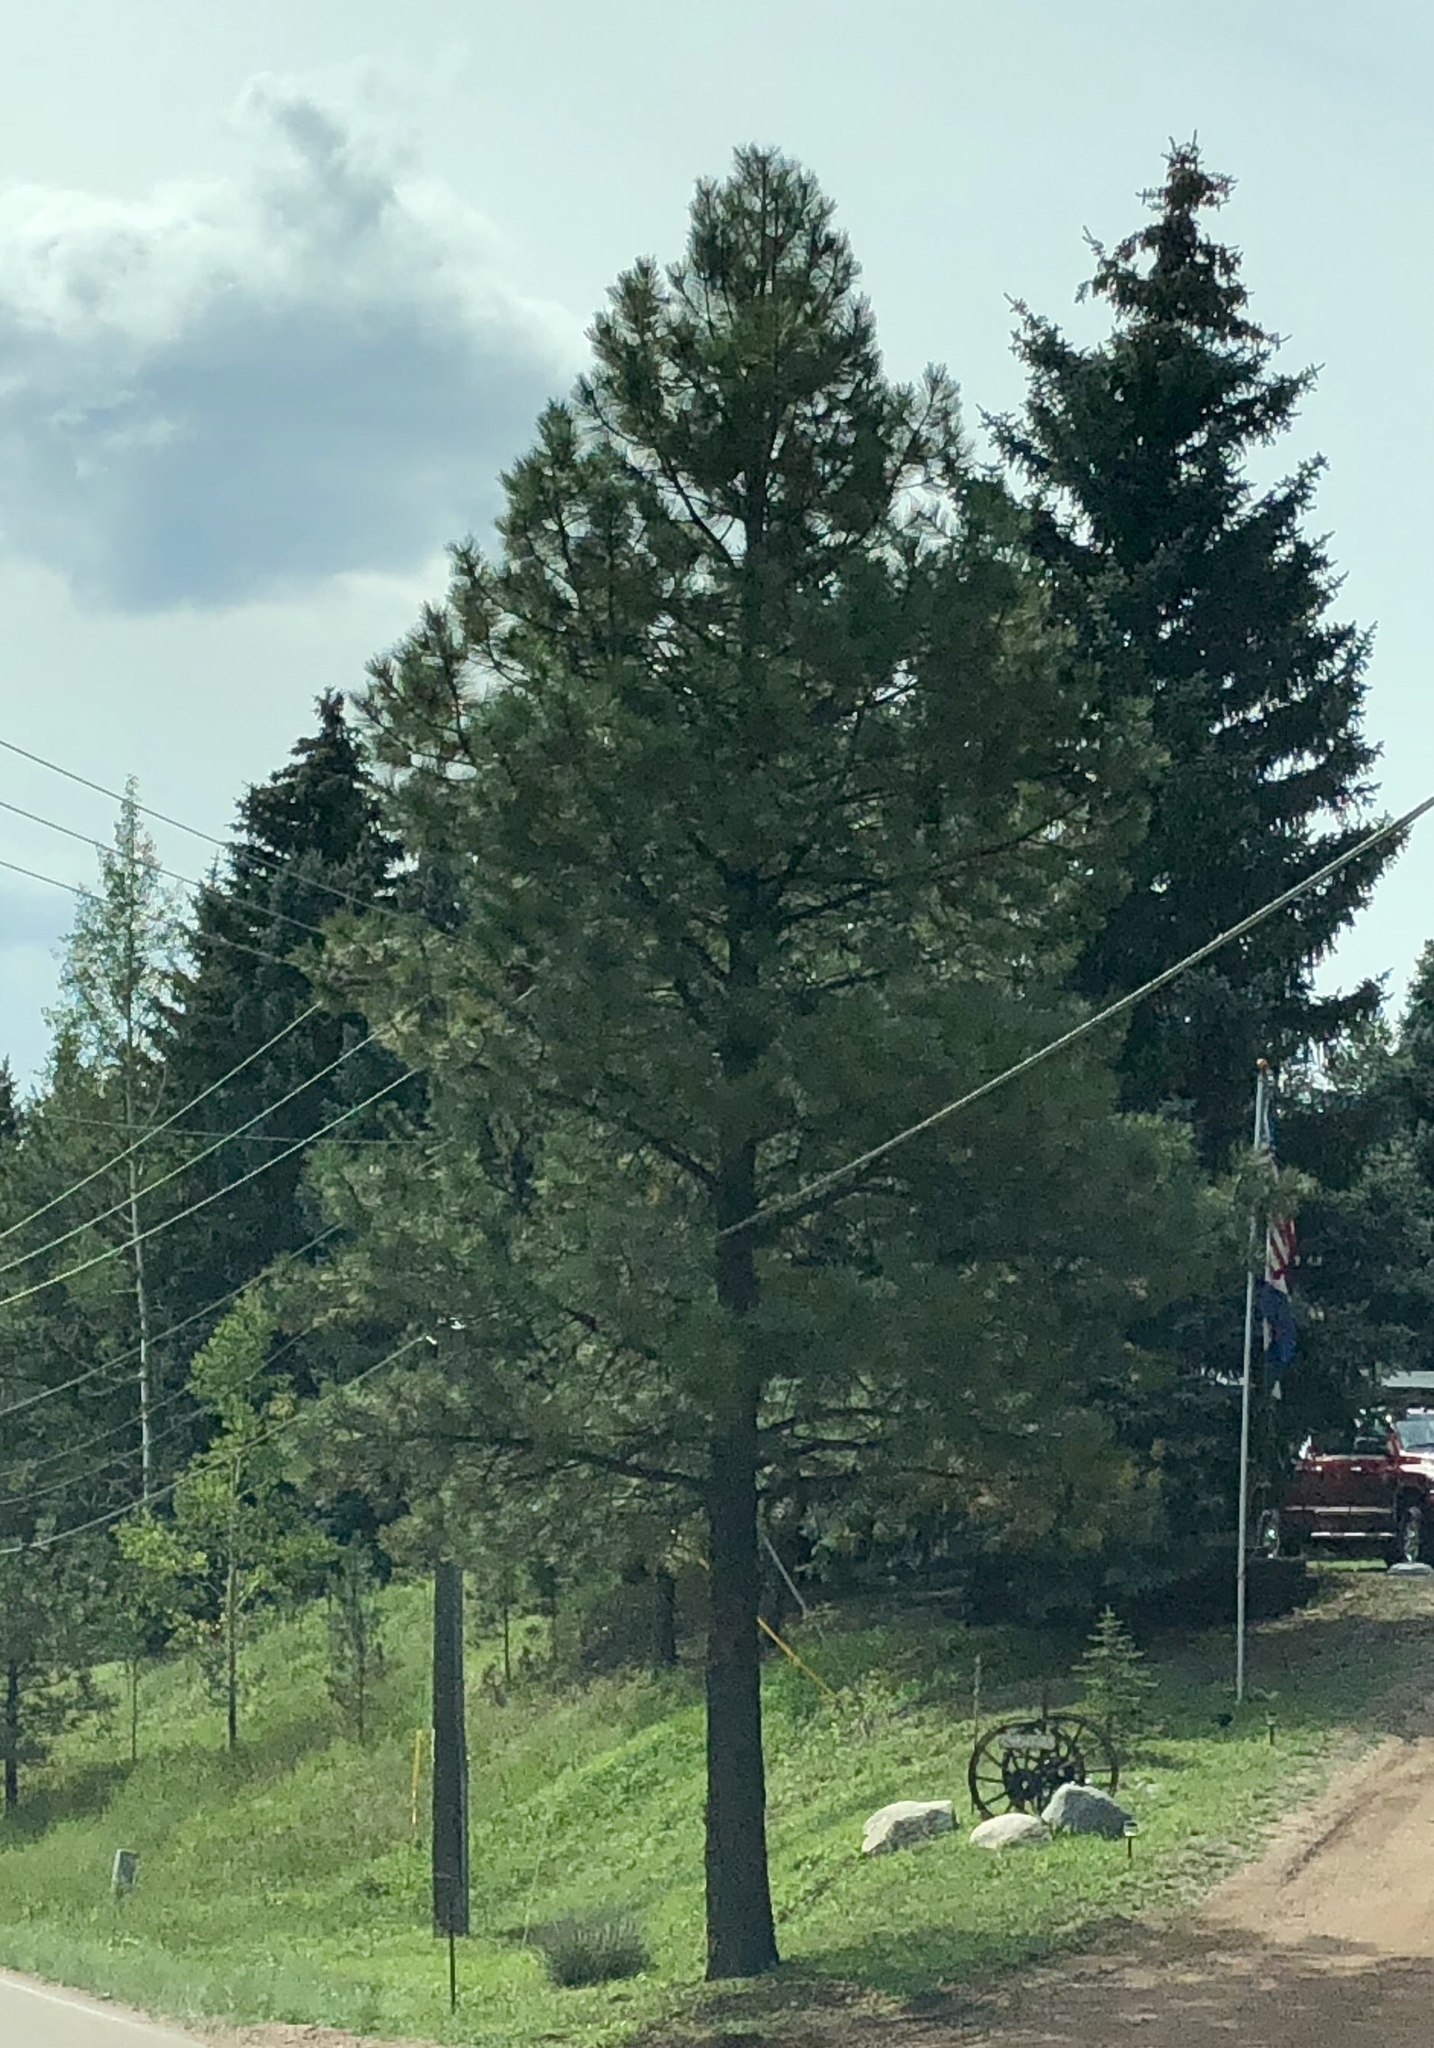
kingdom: Plantae
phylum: Tracheophyta
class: Pinopsida
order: Pinales
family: Pinaceae
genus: Pinus
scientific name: Pinus ponderosa
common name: Western yellow-pine
